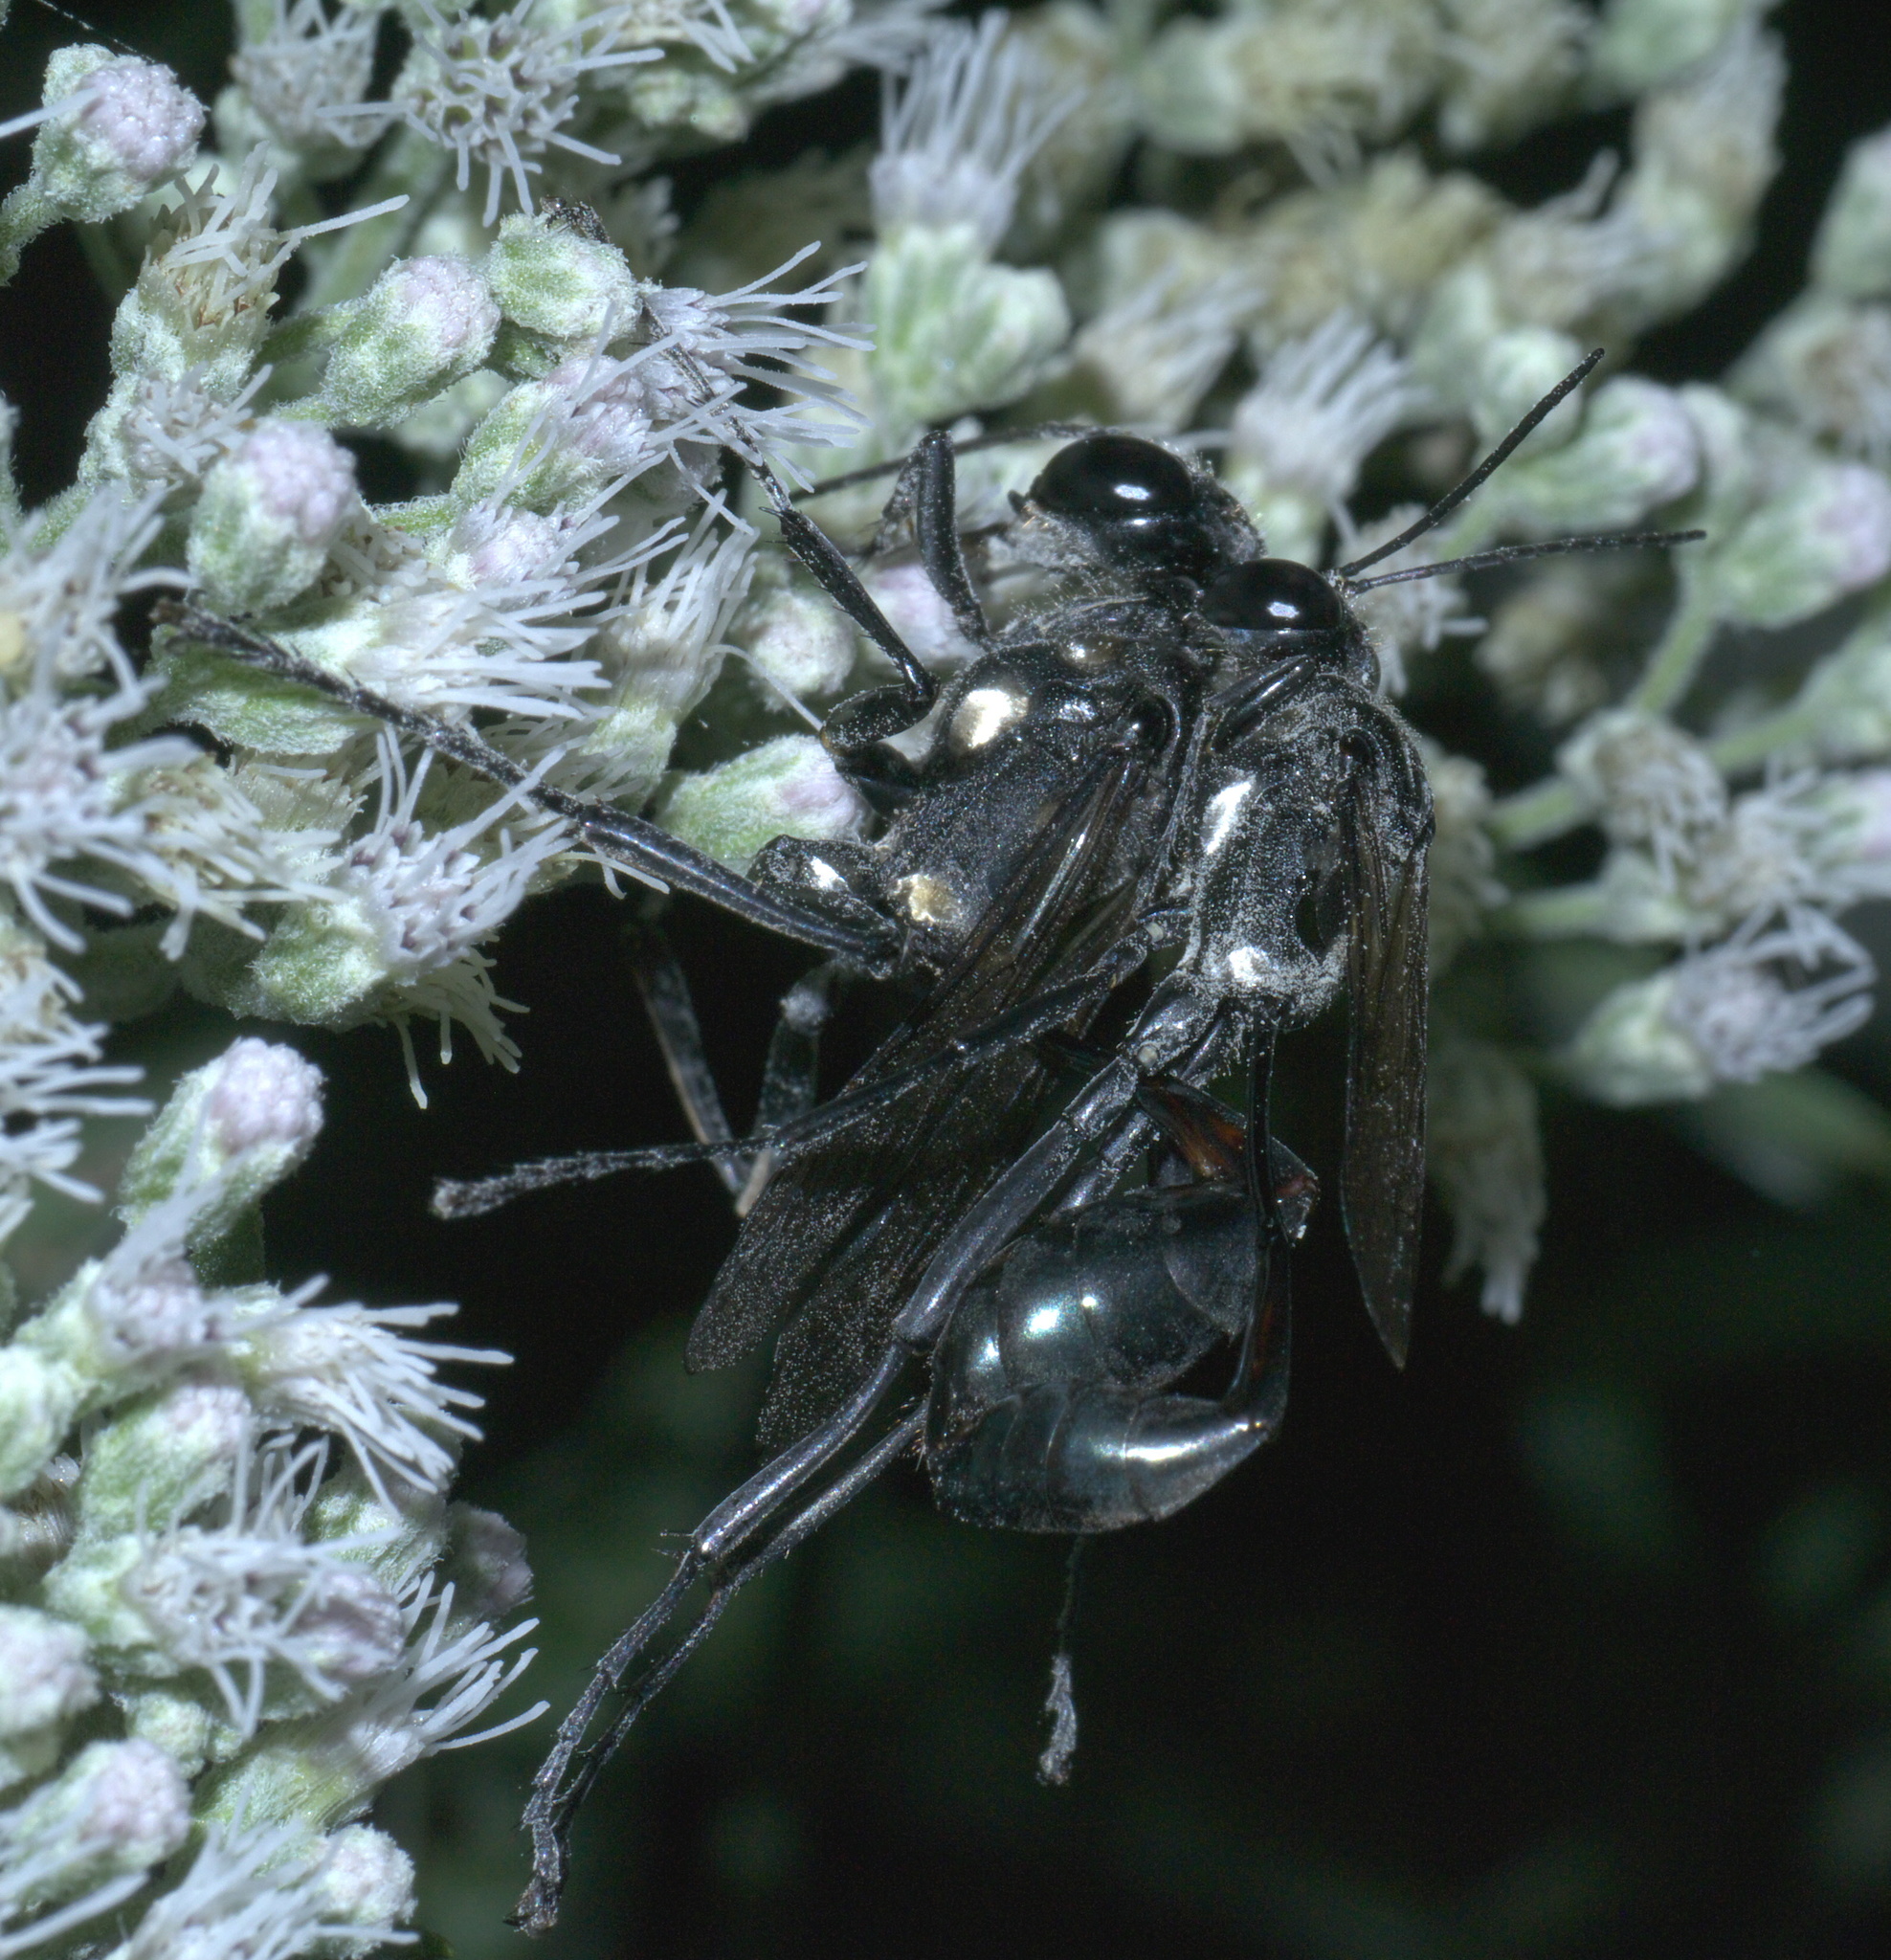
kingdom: Animalia
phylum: Arthropoda
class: Insecta
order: Hymenoptera
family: Sphecidae
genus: Eremnophila
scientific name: Eremnophila aureonotata
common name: Gold-marked thread-waisted wasp
